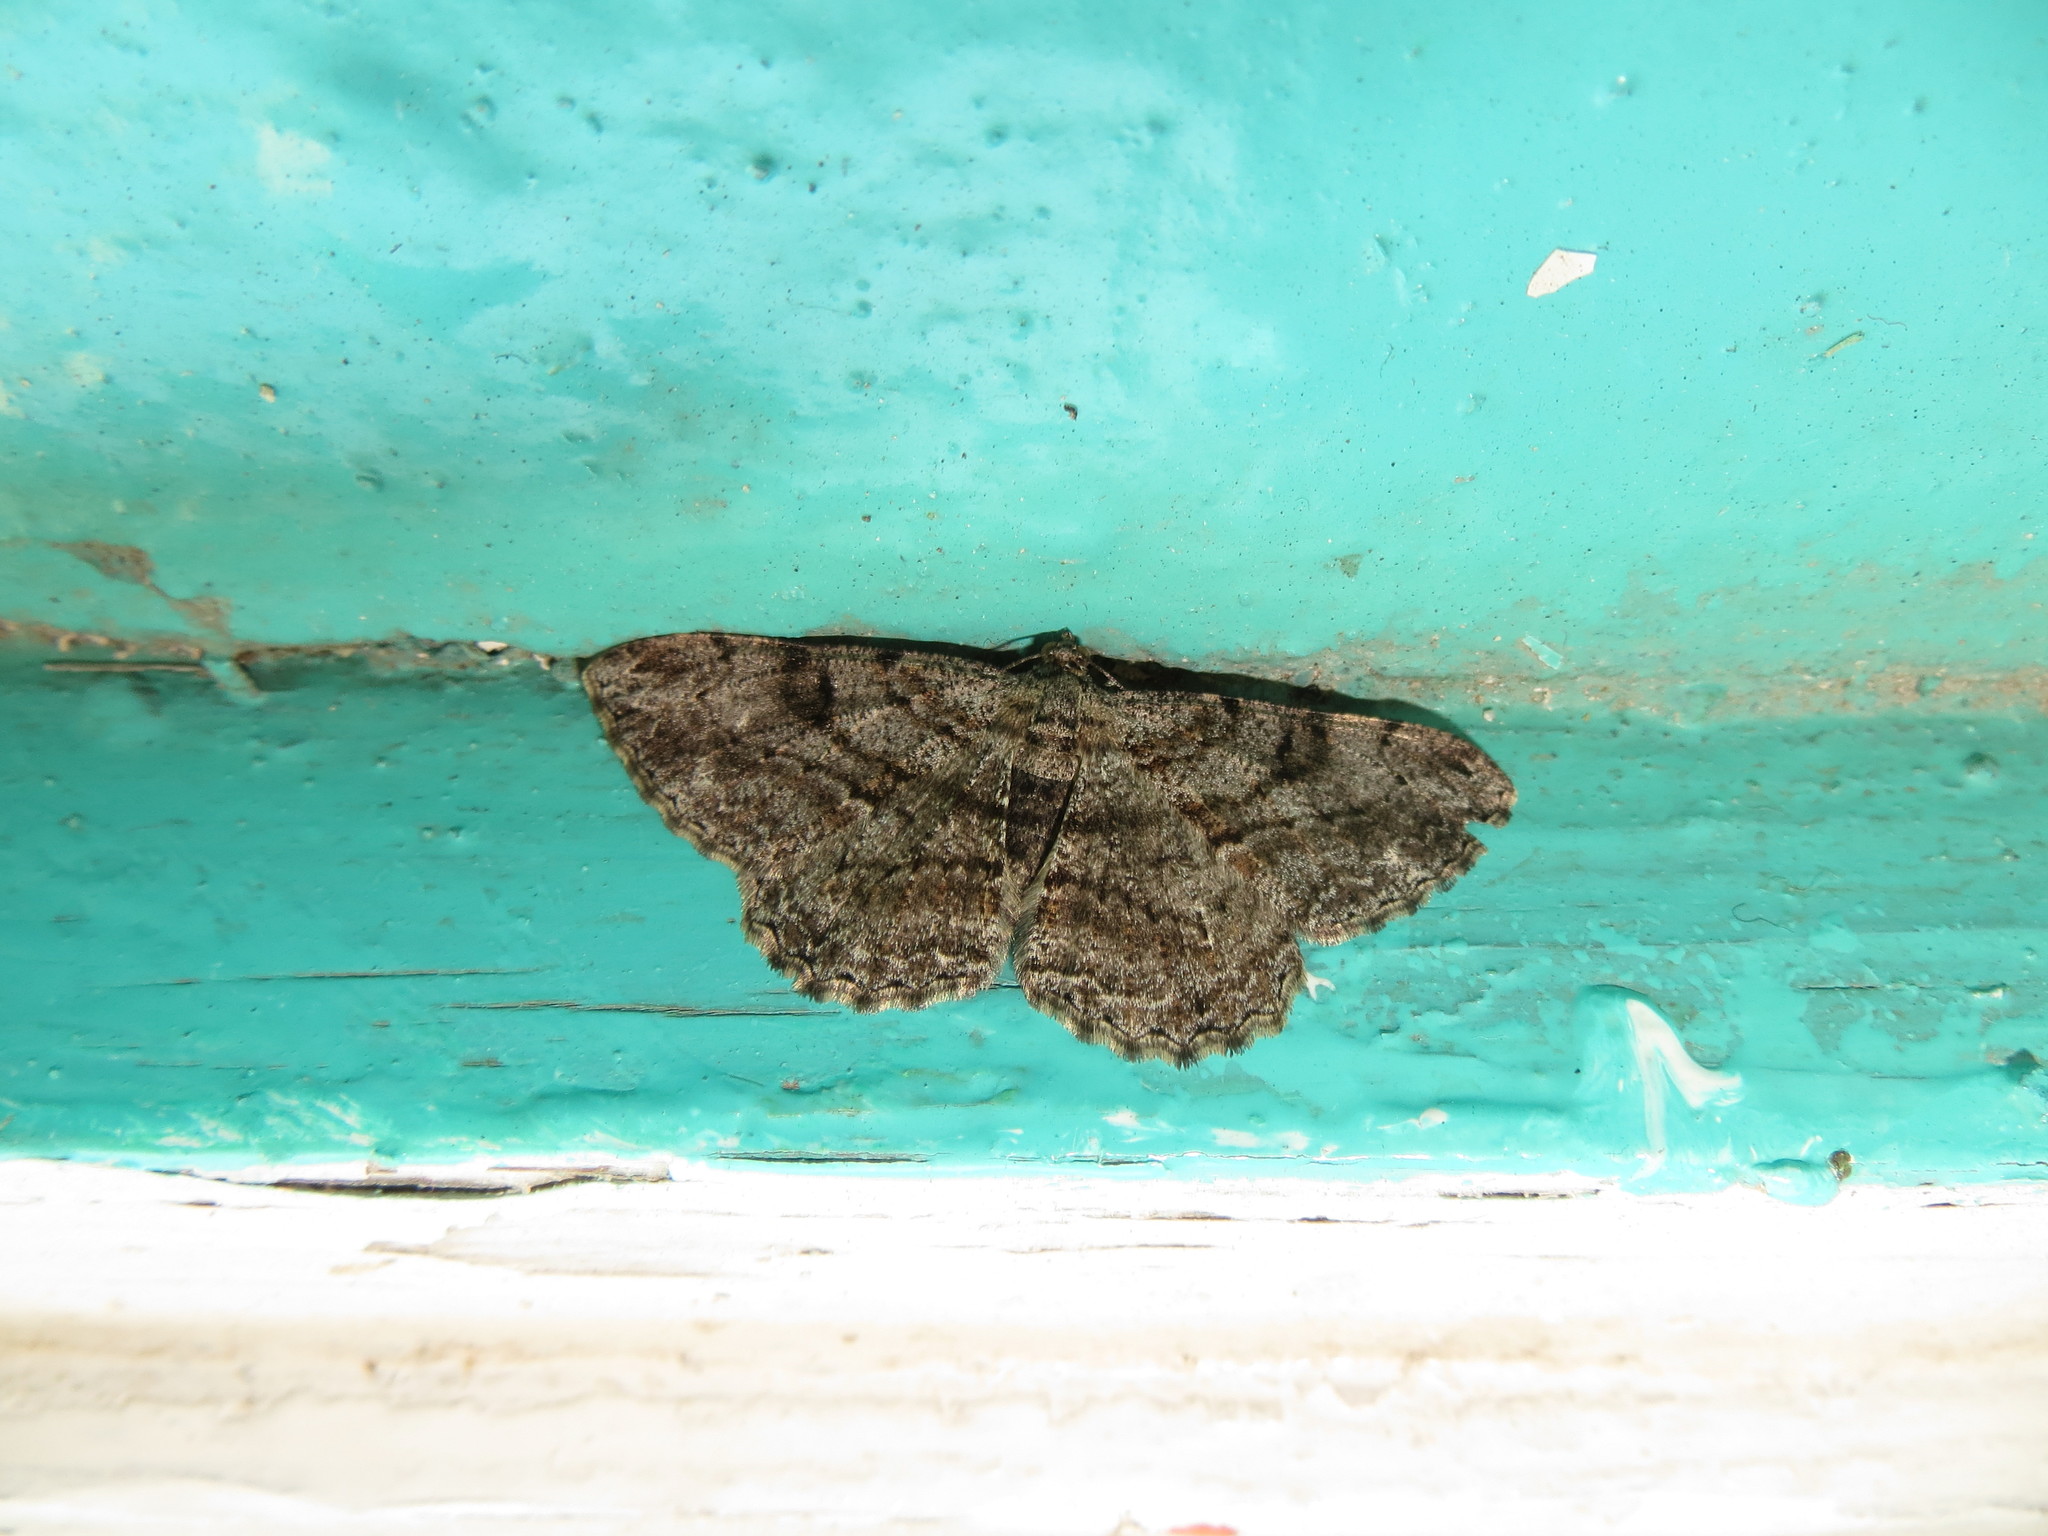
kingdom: Animalia
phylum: Arthropoda
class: Insecta
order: Lepidoptera
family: Geometridae
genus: Peribatodes
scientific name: Peribatodes rhomboidaria
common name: Willow beauty
